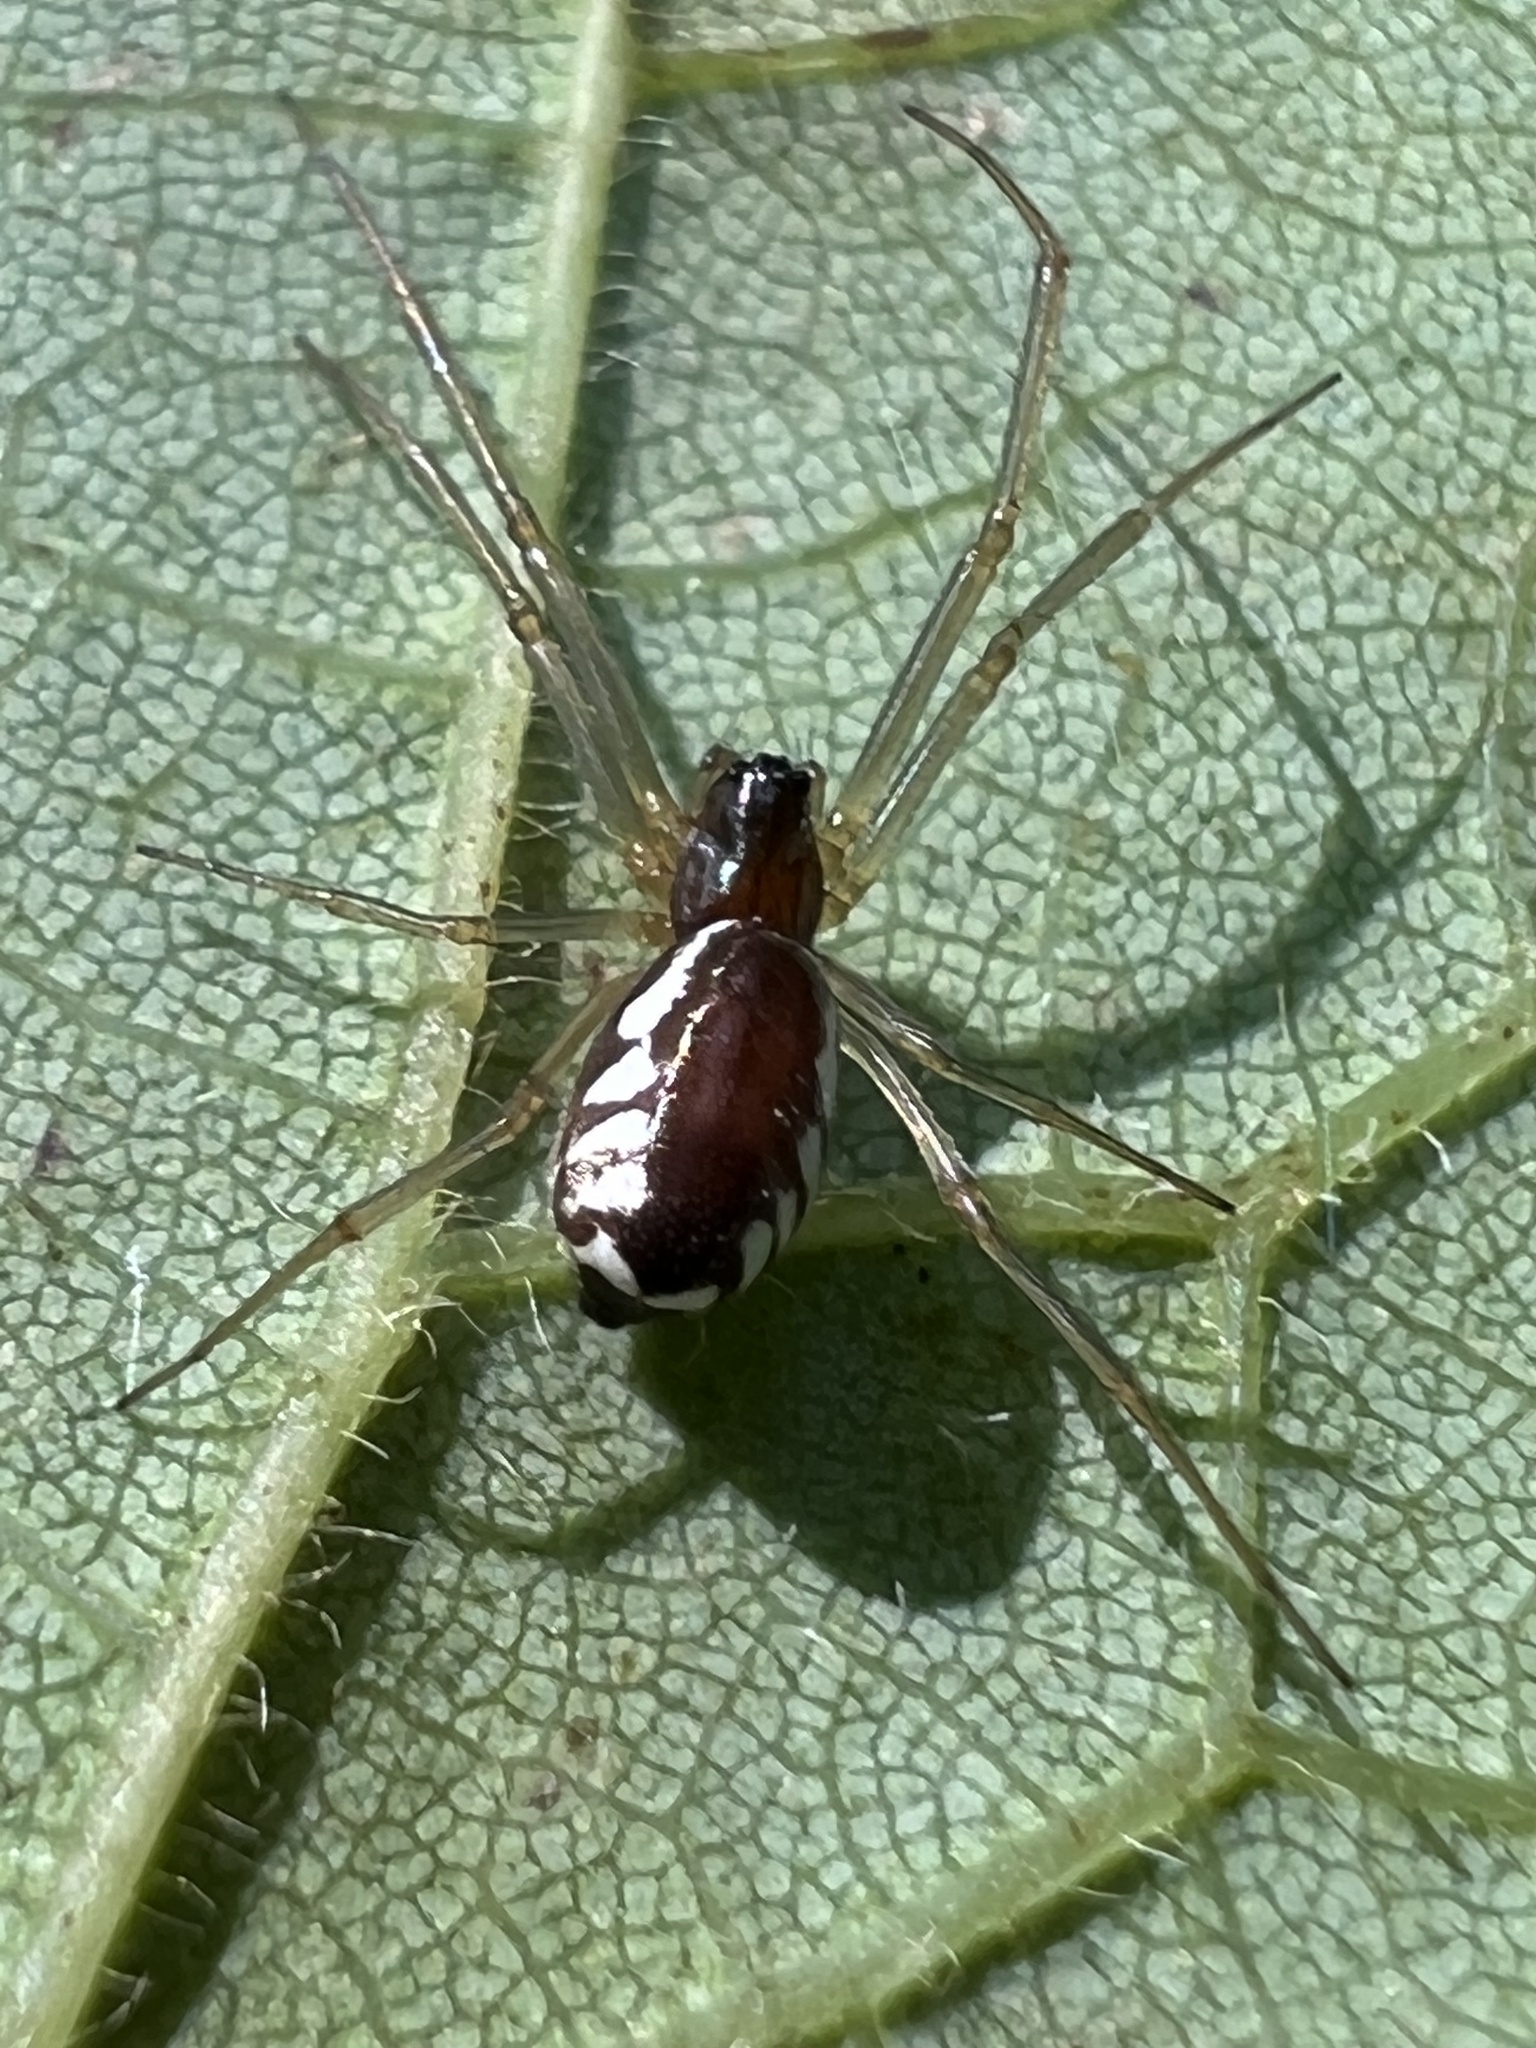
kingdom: Animalia
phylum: Arthropoda
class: Arachnida
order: Araneae
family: Linyphiidae
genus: Frontinella
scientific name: Frontinella pyramitela
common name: Bowl-and-doily spider
